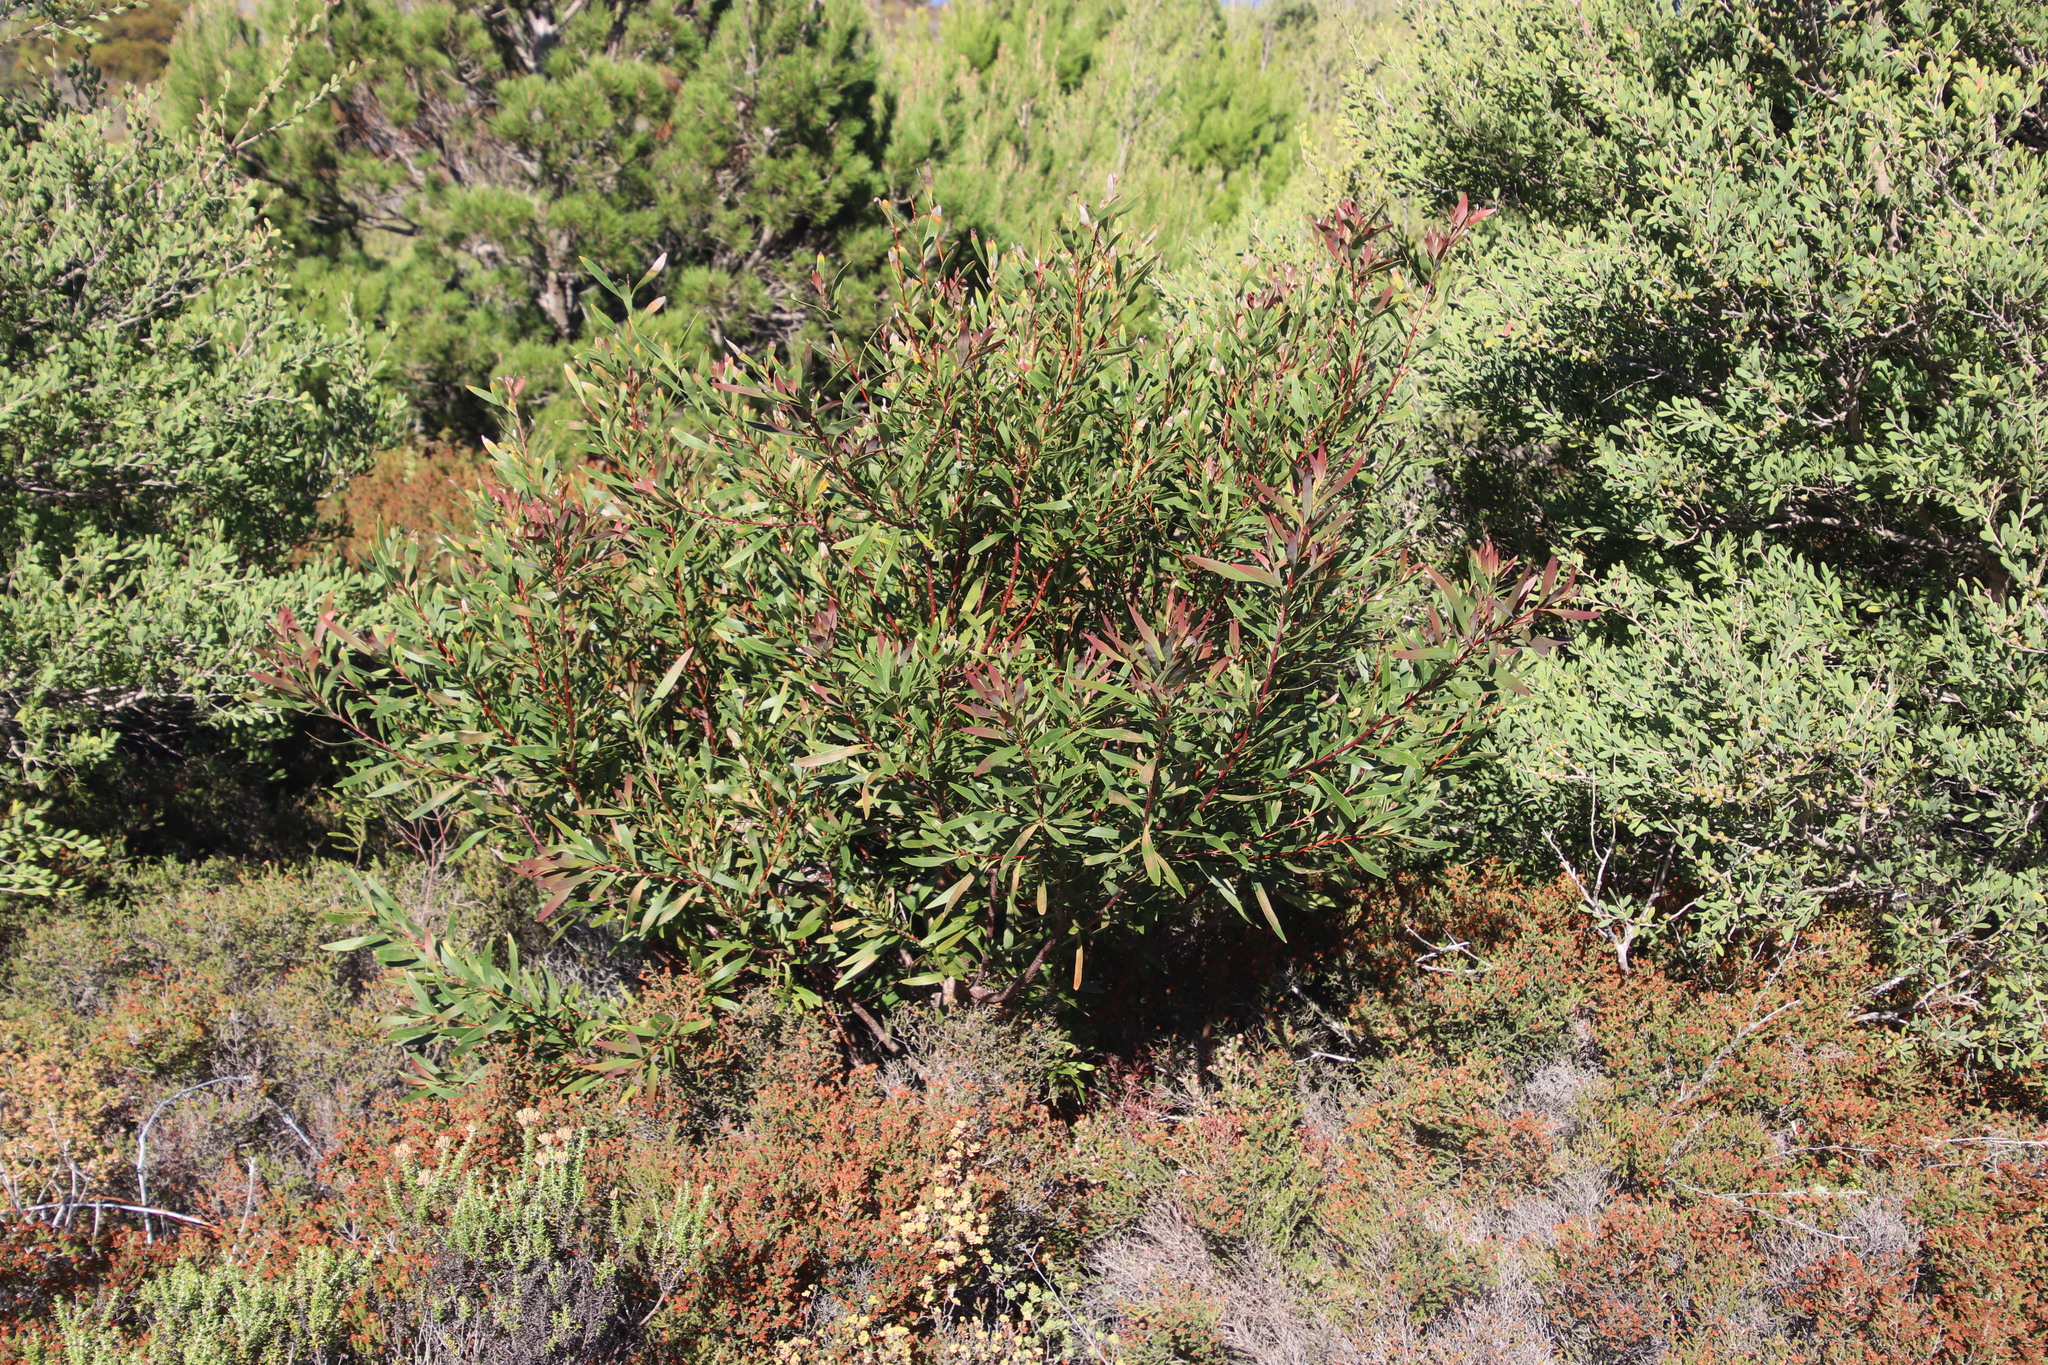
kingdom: Plantae
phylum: Tracheophyta
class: Magnoliopsida
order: Proteales
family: Proteaceae
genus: Hakea
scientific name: Hakea salicifolia
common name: Willow hakea
